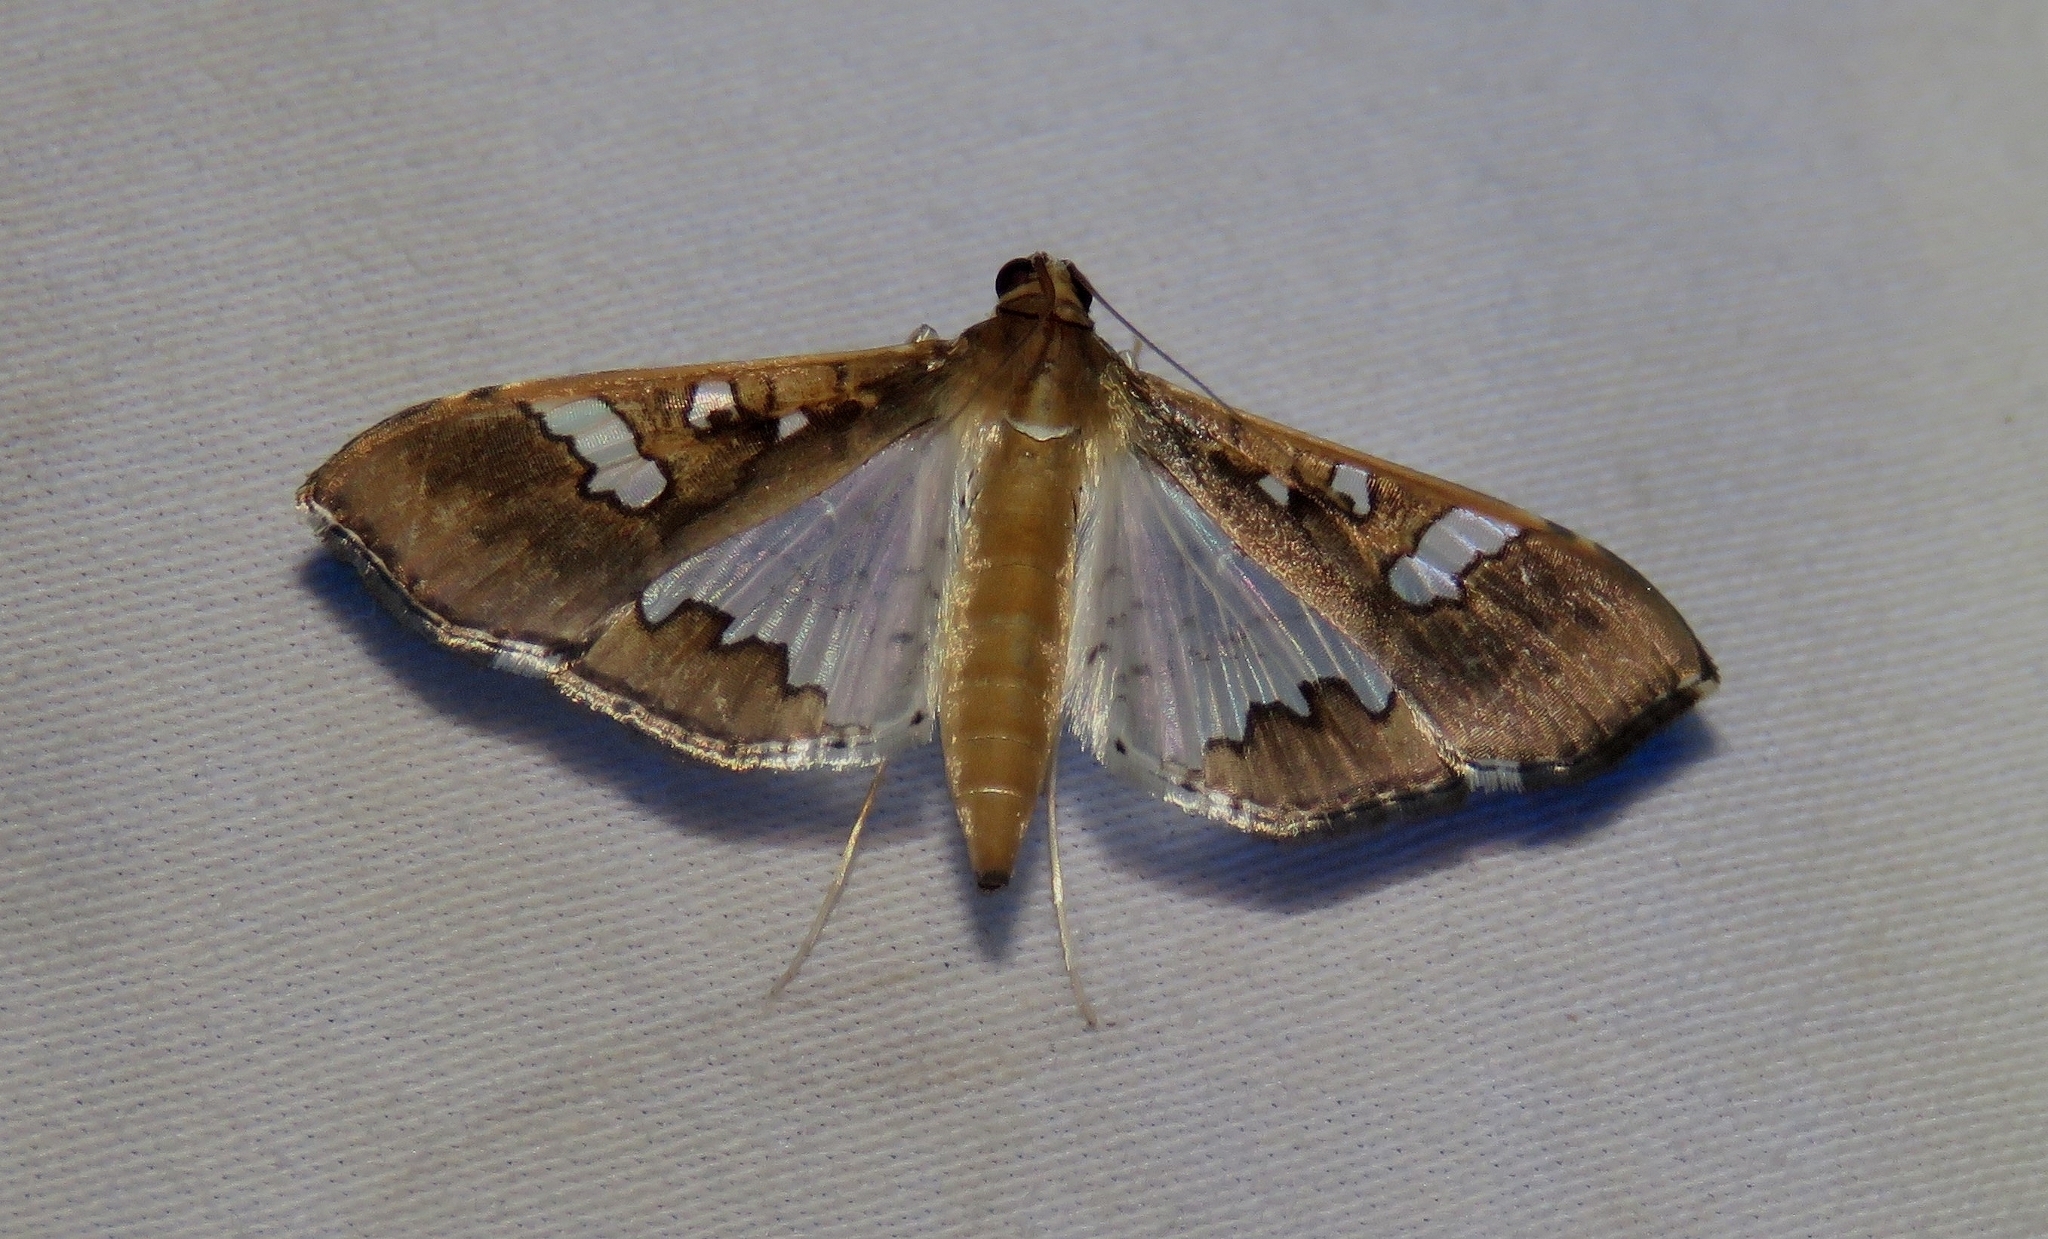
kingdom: Animalia
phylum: Arthropoda
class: Insecta
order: Lepidoptera
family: Crambidae
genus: Maruca
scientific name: Maruca vitrata
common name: Maruca pod borer
